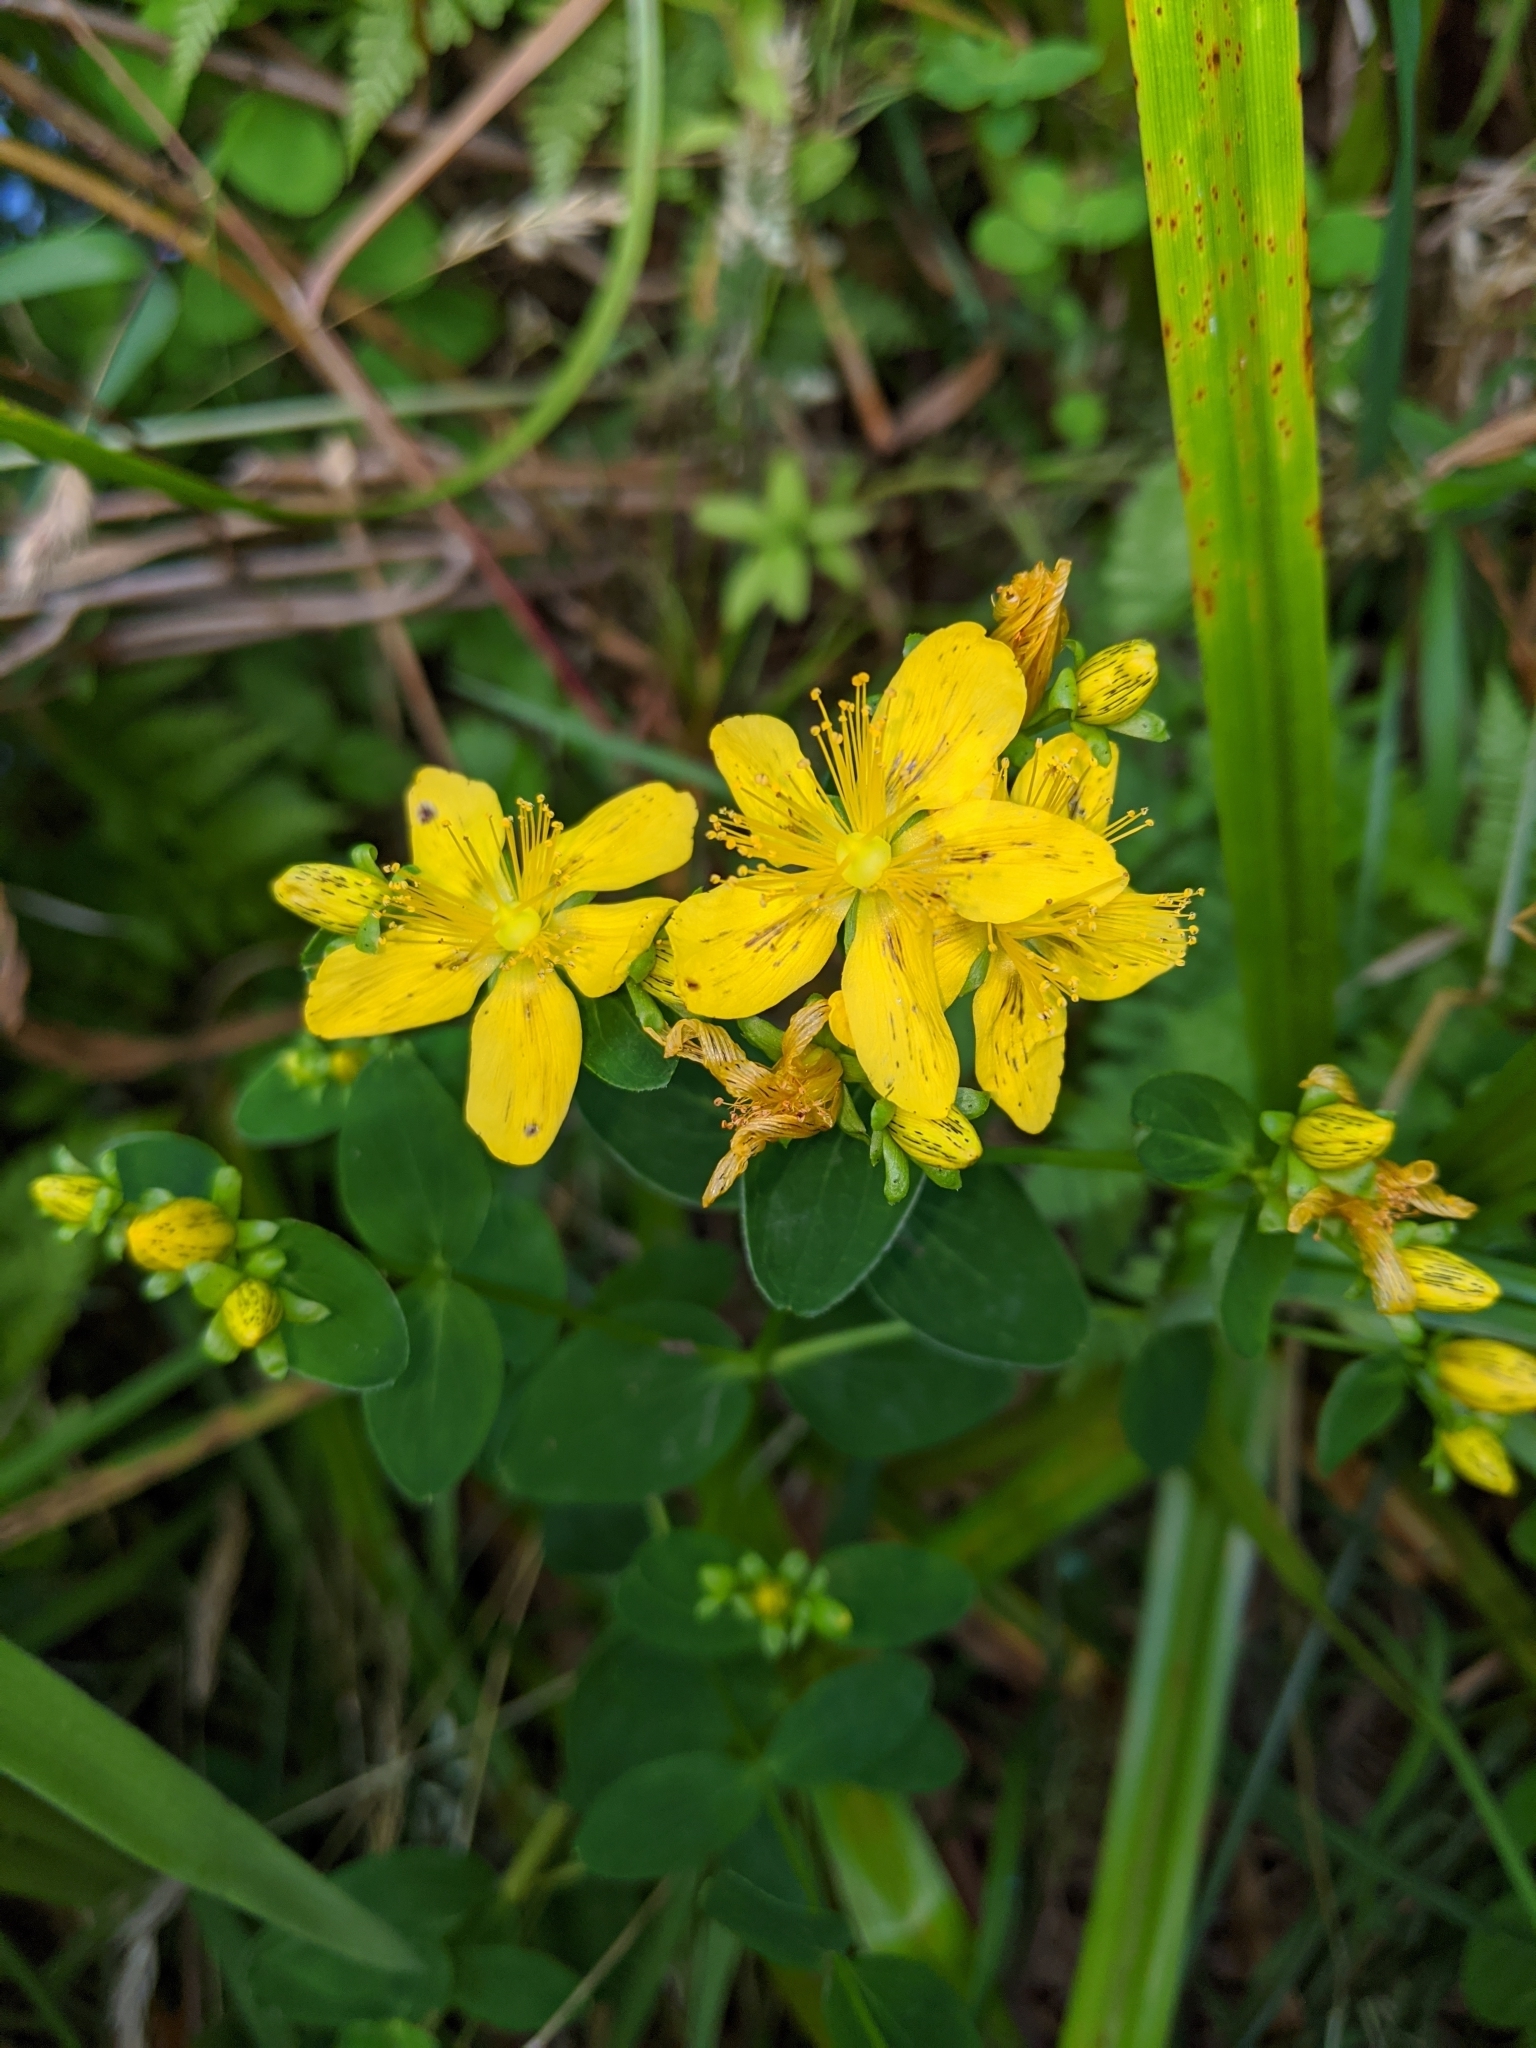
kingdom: Plantae
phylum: Tracheophyta
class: Magnoliopsida
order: Malpighiales
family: Hypericaceae
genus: Hypericum
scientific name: Hypericum maculatum
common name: Imperforate st. john's-wort
